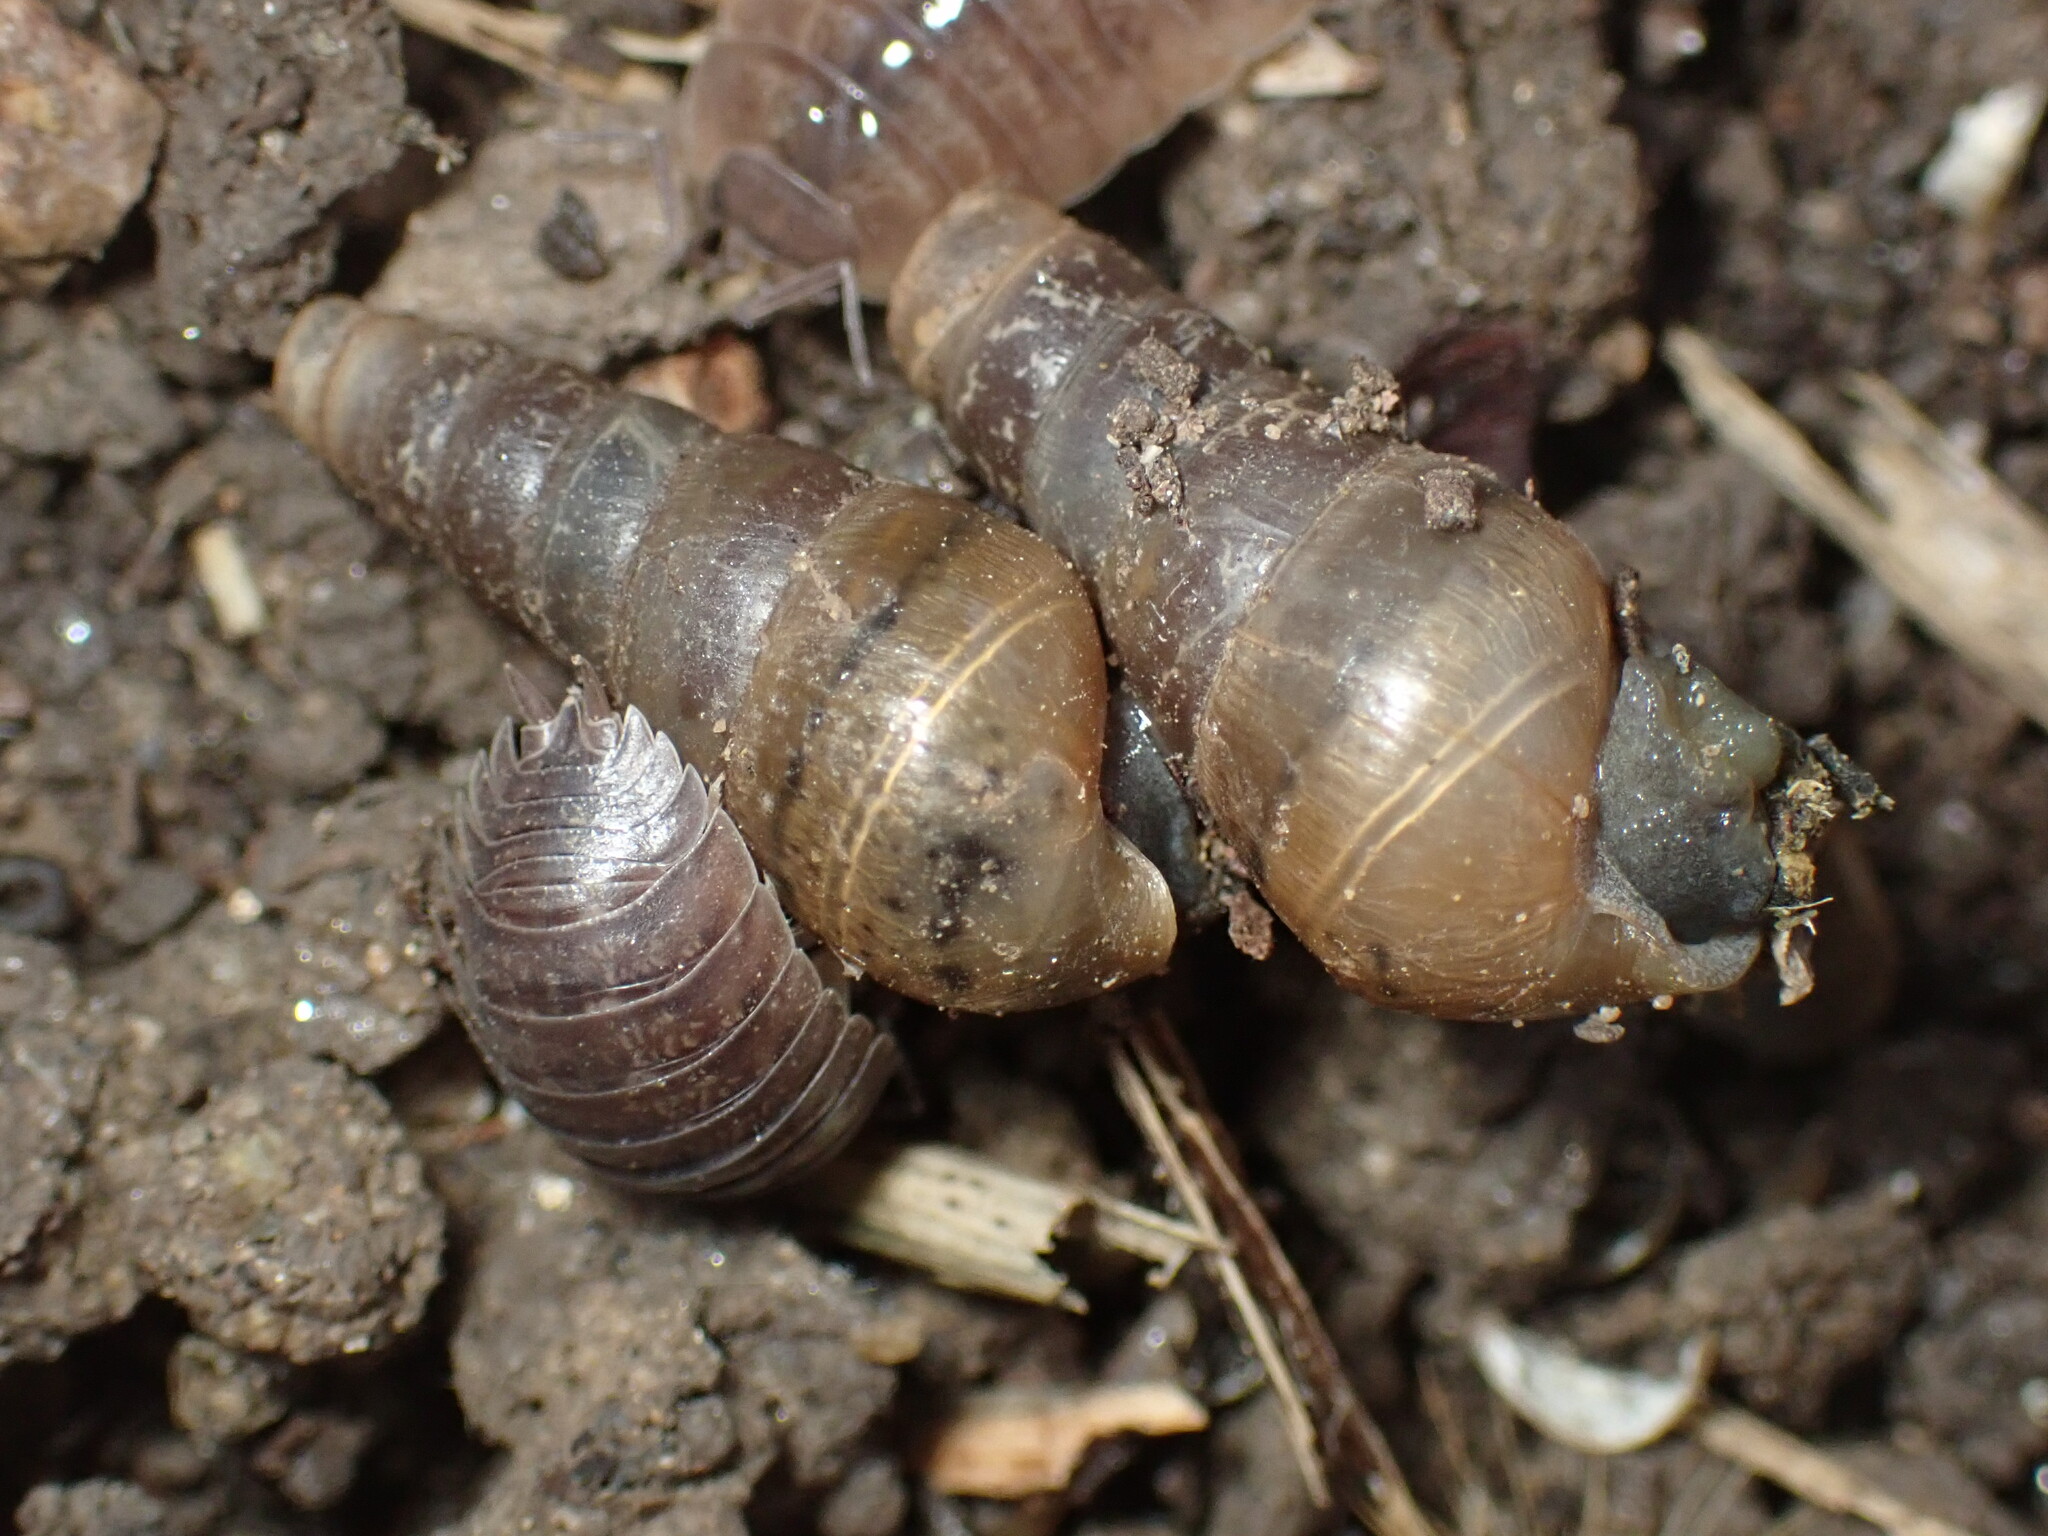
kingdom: Animalia
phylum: Mollusca
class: Gastropoda
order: Stylommatophora
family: Achatinidae
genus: Rumina
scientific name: Rumina decollata
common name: Decollate snail
